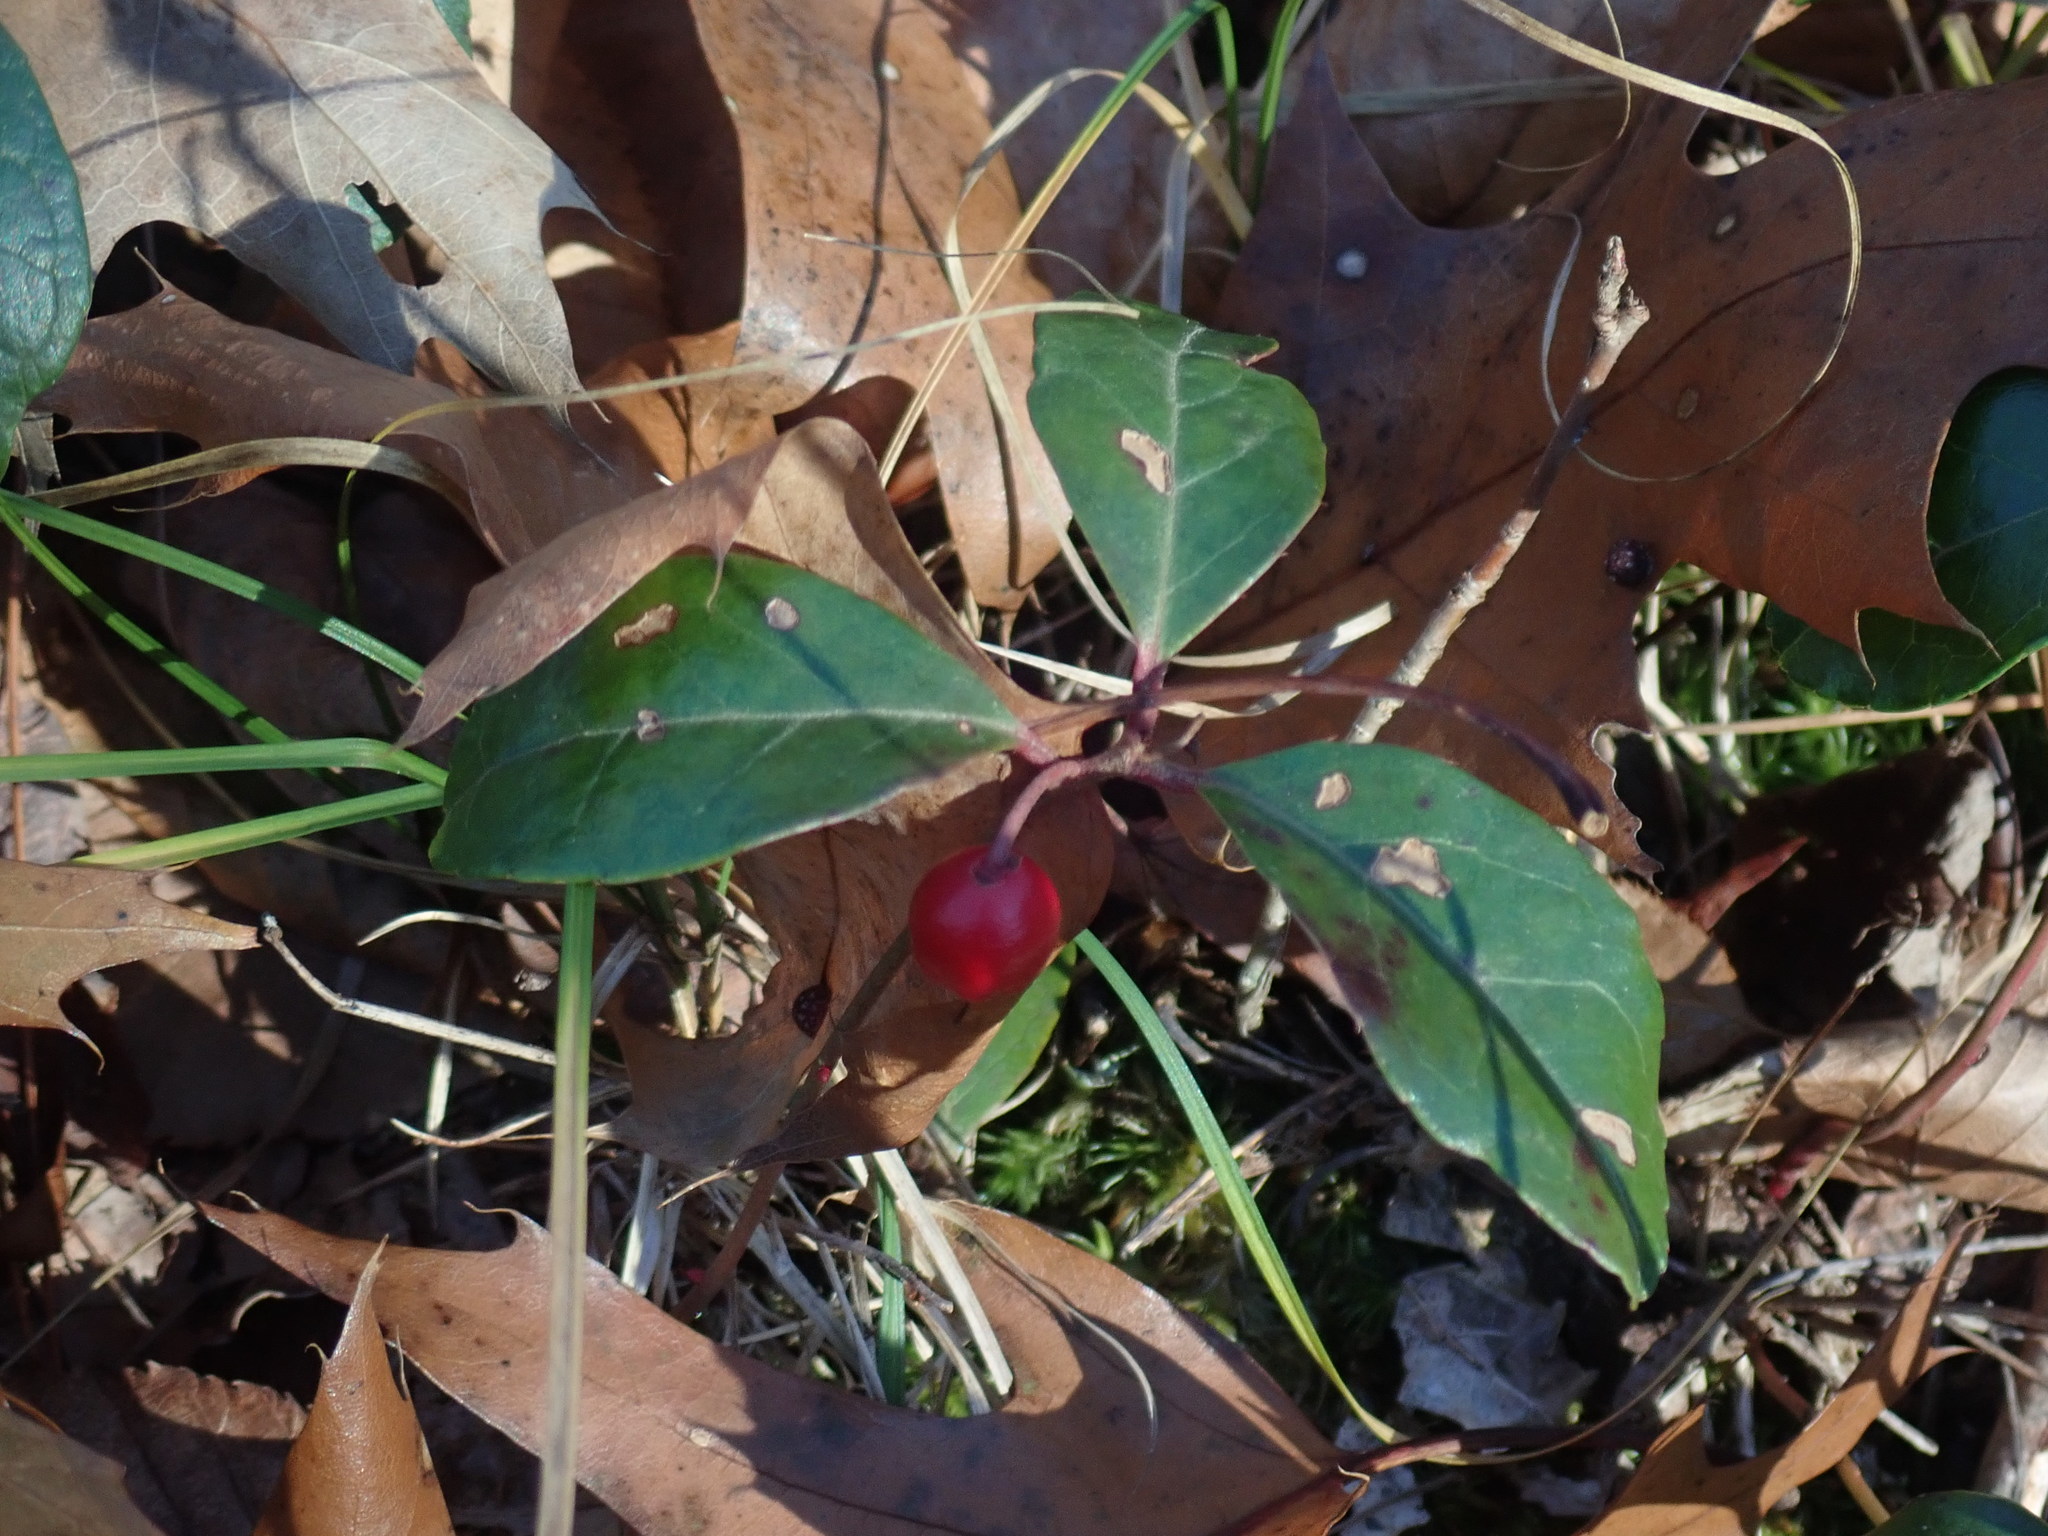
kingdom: Plantae
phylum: Tracheophyta
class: Magnoliopsida
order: Ericales
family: Ericaceae
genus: Gaultheria
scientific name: Gaultheria procumbens
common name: Checkerberry
